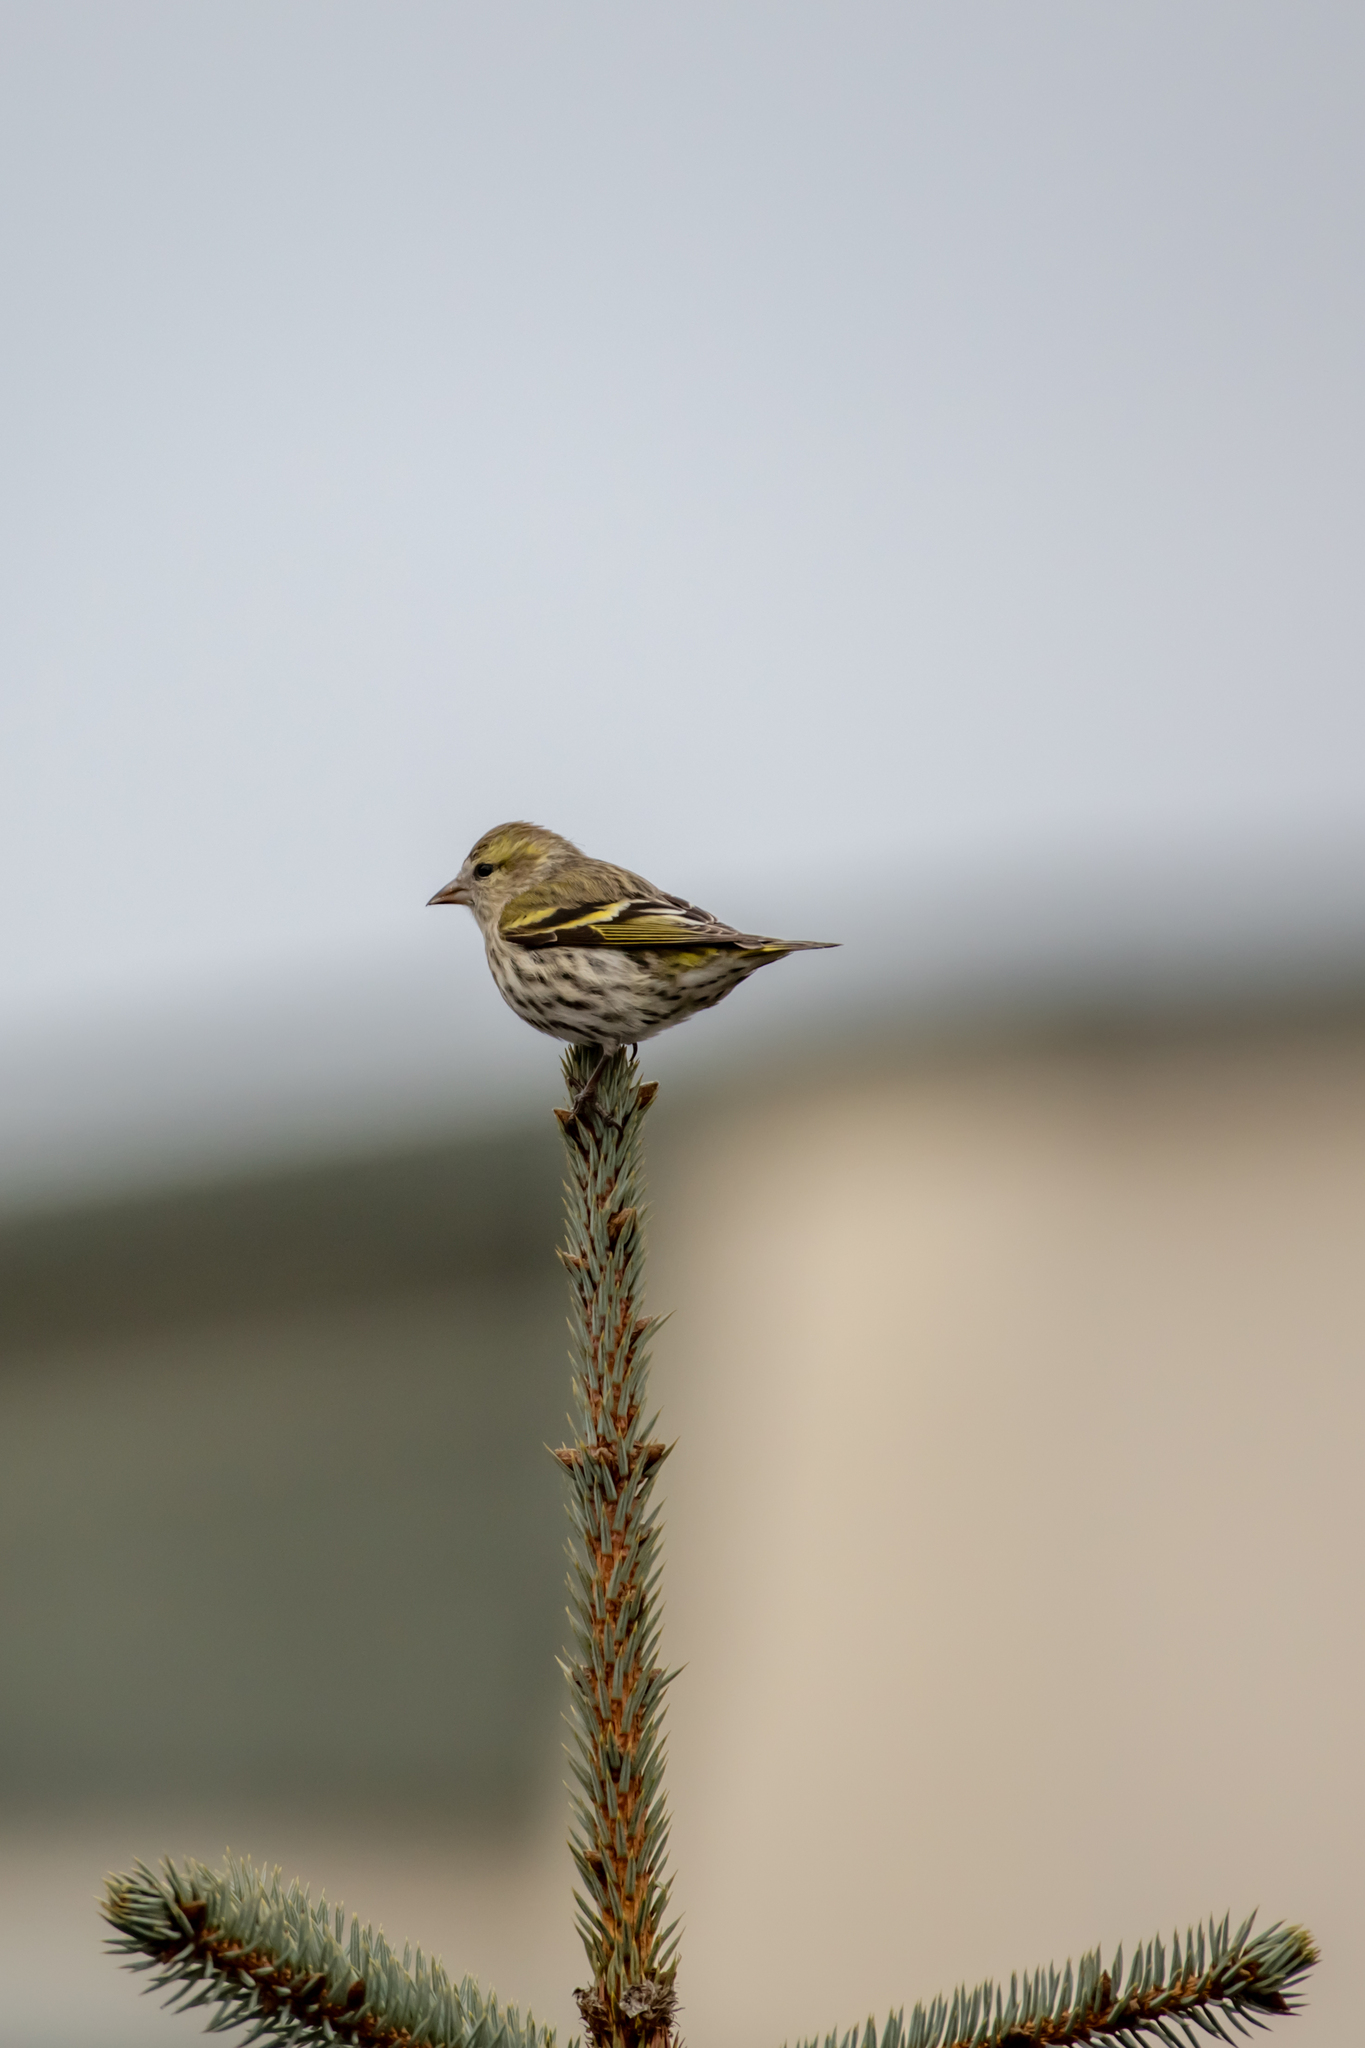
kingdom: Animalia
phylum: Chordata
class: Aves
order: Passeriformes
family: Fringillidae
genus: Spinus
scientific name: Spinus spinus
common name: Eurasian siskin
